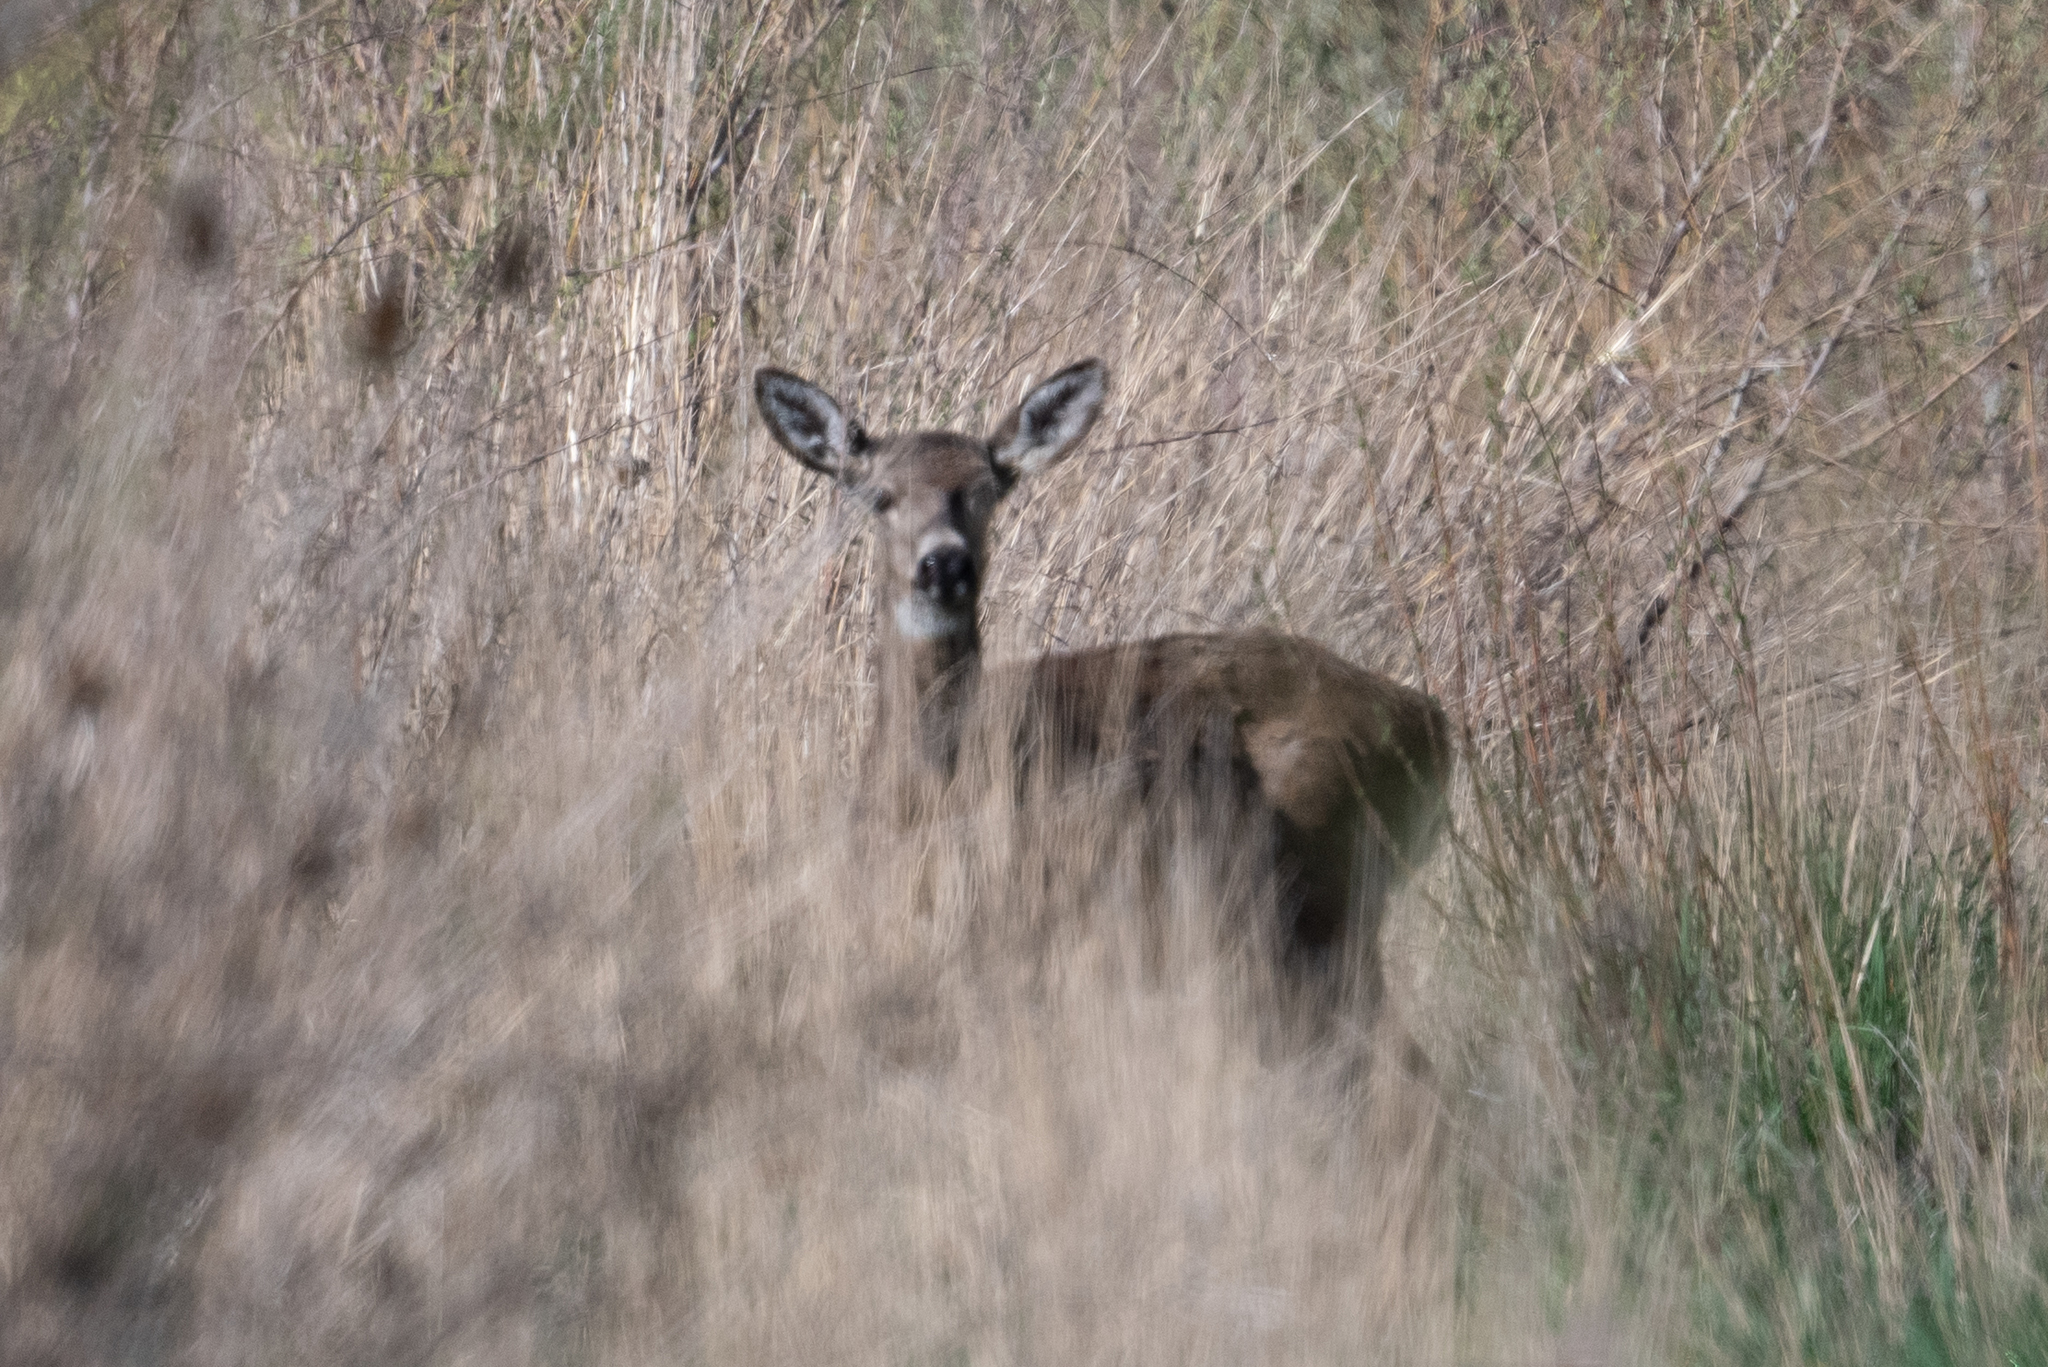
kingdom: Animalia
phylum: Chordata
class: Mammalia
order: Artiodactyla
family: Cervidae
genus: Odocoileus
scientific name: Odocoileus hemionus
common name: Mule deer
